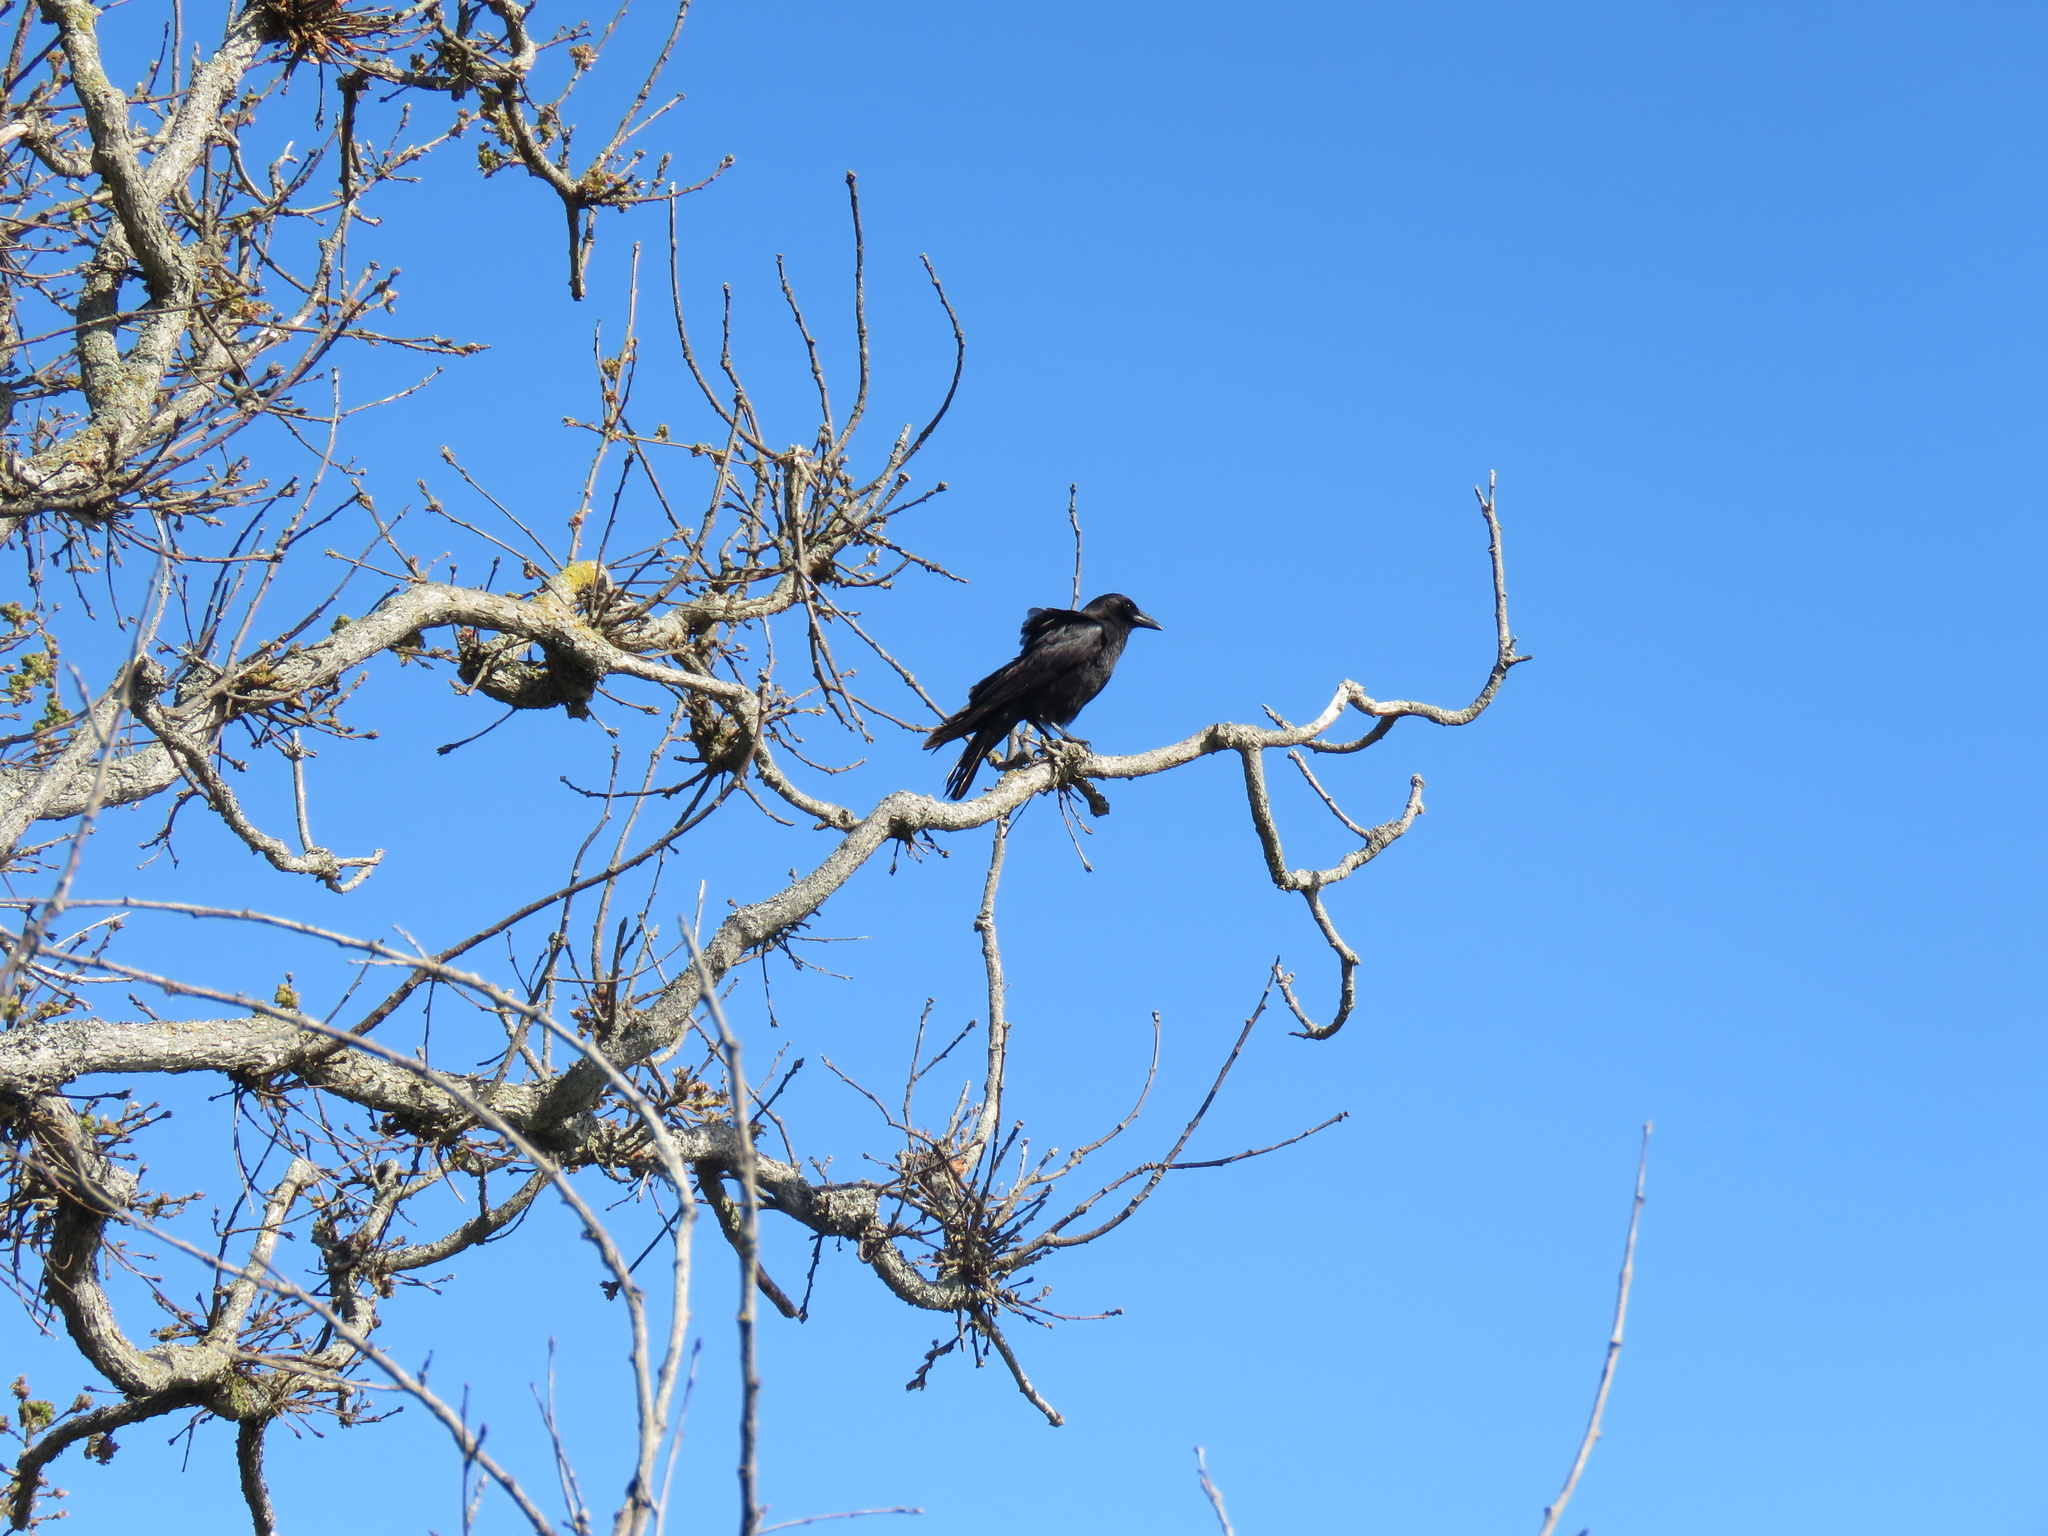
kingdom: Animalia
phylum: Chordata
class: Aves
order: Passeriformes
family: Corvidae
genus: Corvus
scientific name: Corvus brachyrhynchos
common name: American crow
